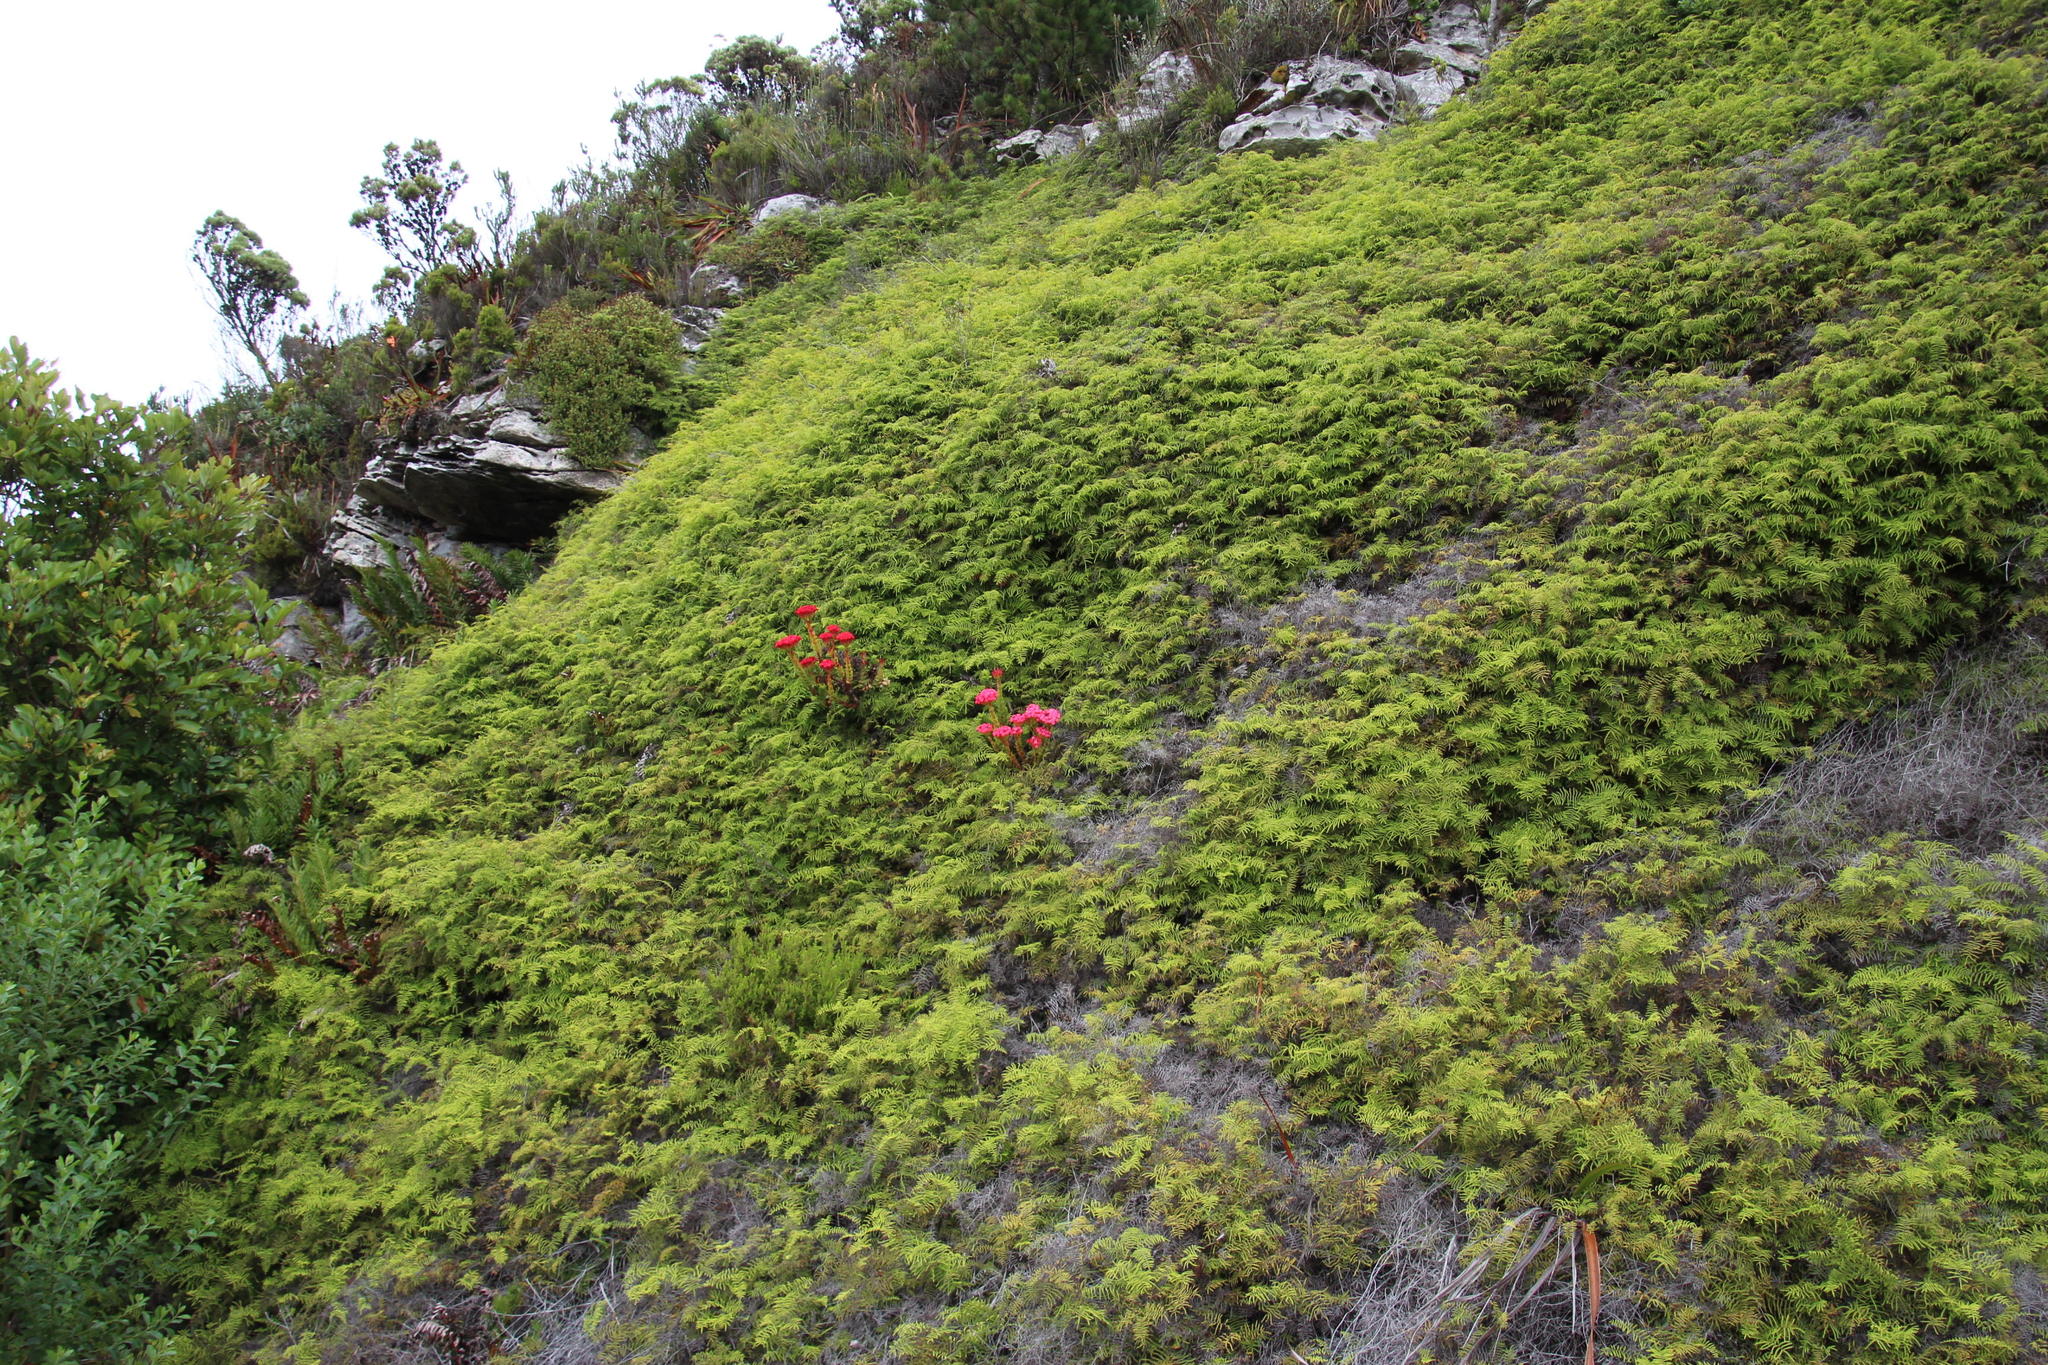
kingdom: Plantae
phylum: Tracheophyta
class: Polypodiopsida
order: Gleicheniales
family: Gleicheniaceae
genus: Gleichenia
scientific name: Gleichenia polypodioides
